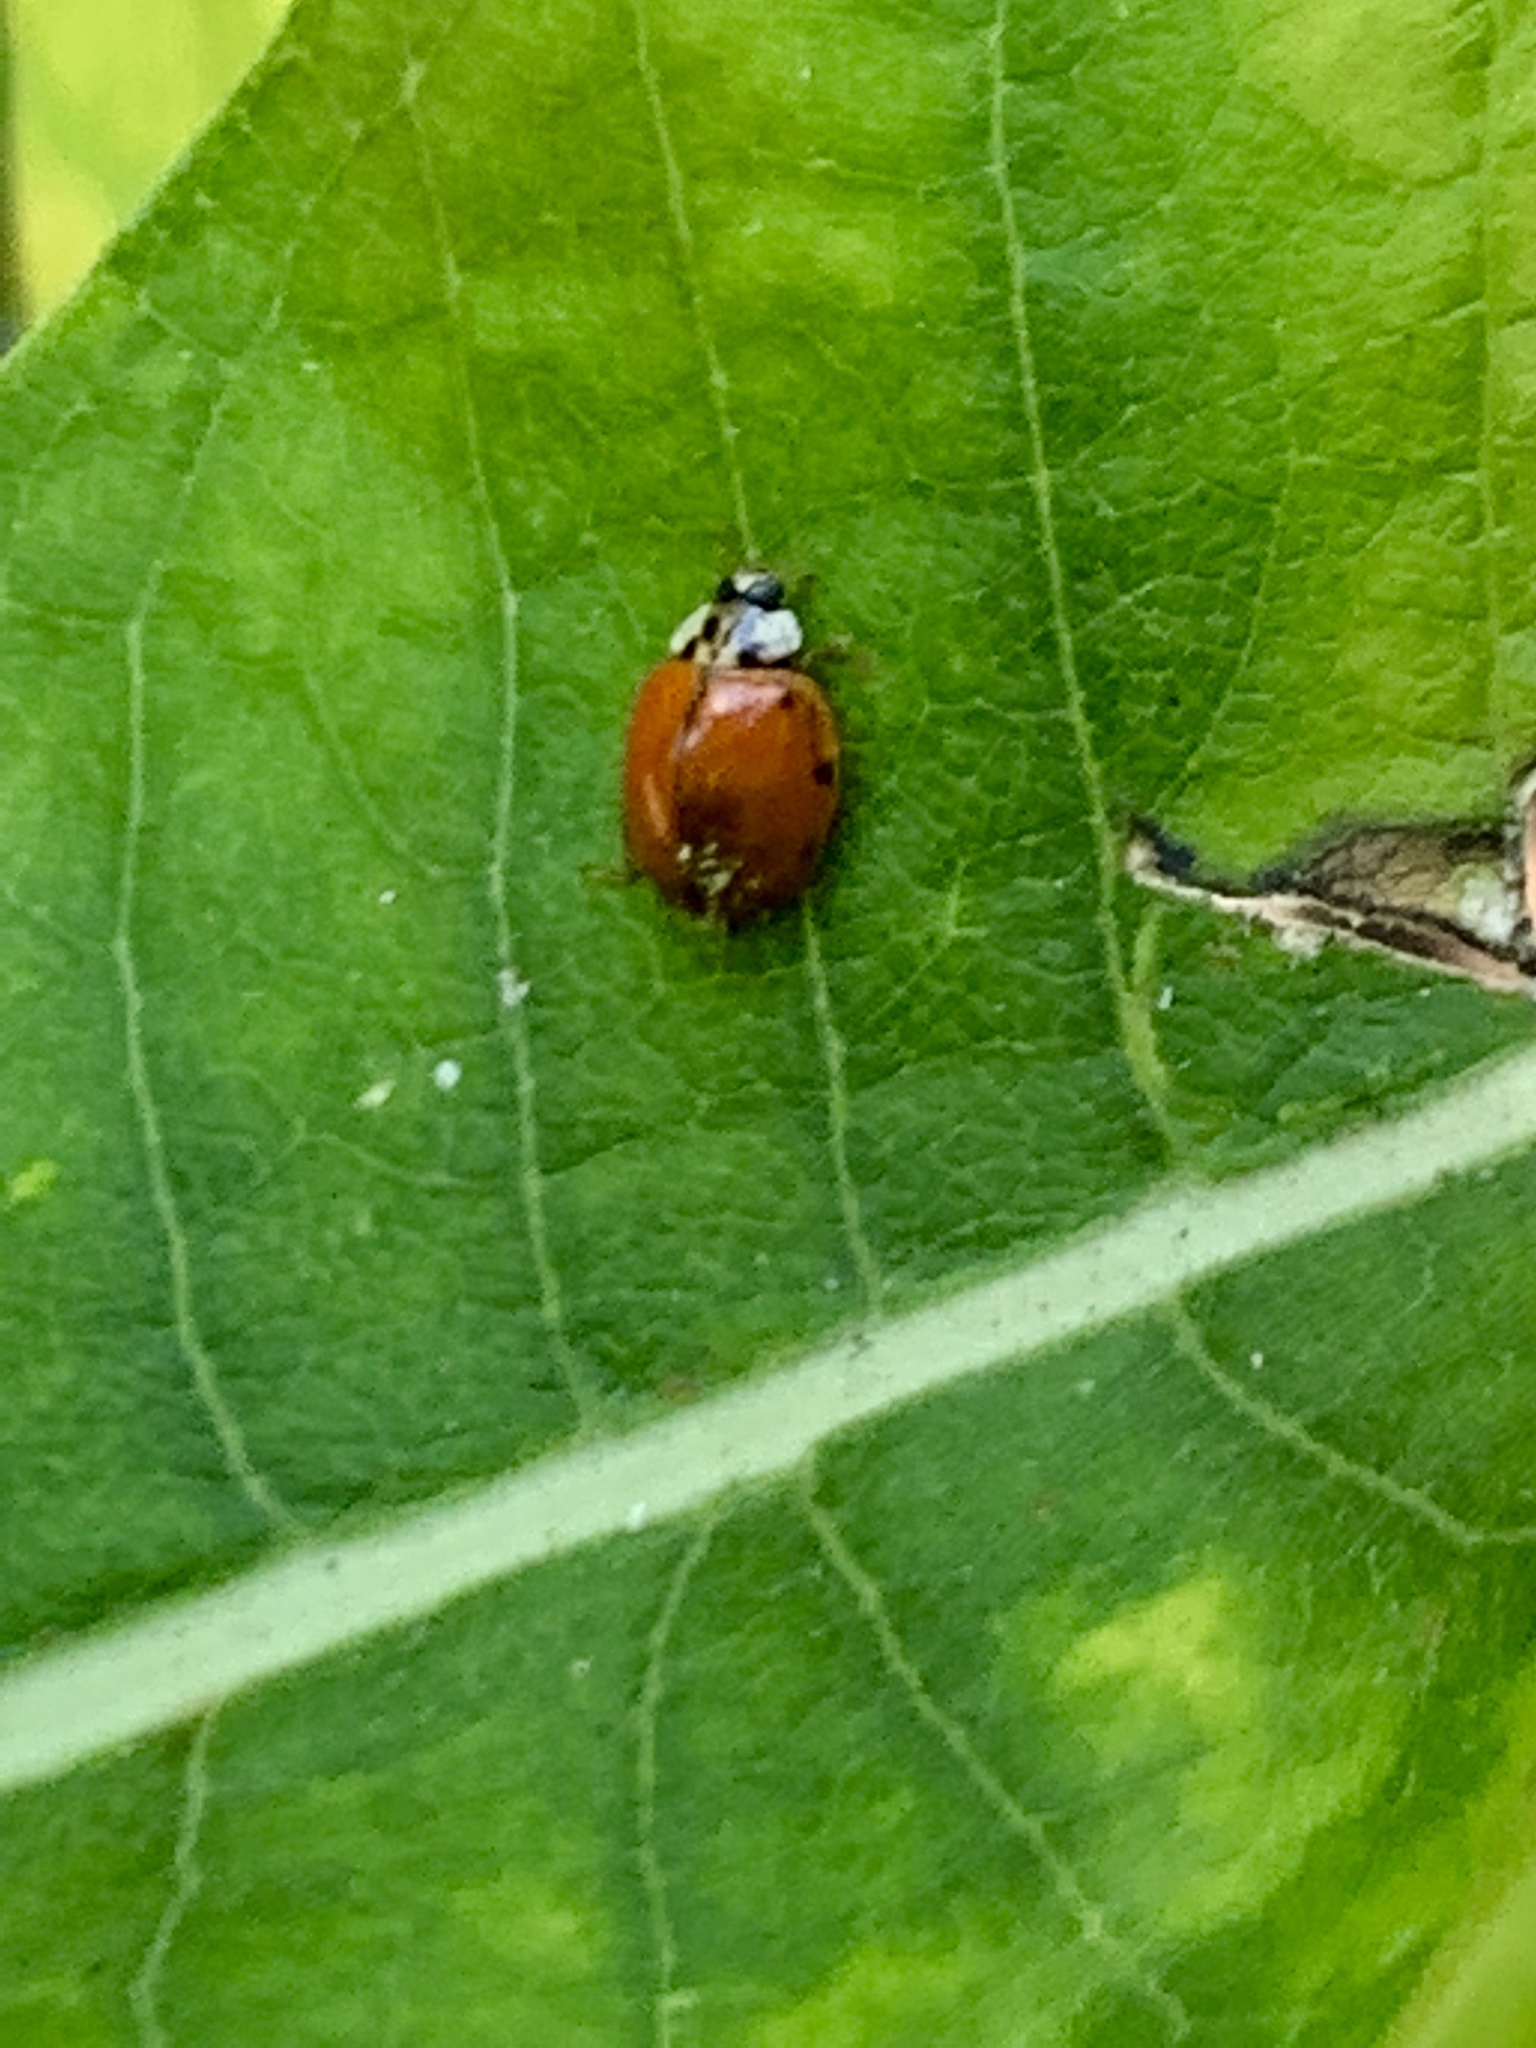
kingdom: Animalia
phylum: Arthropoda
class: Insecta
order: Coleoptera
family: Coccinellidae
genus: Harmonia
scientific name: Harmonia axyridis
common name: Harlequin ladybird
